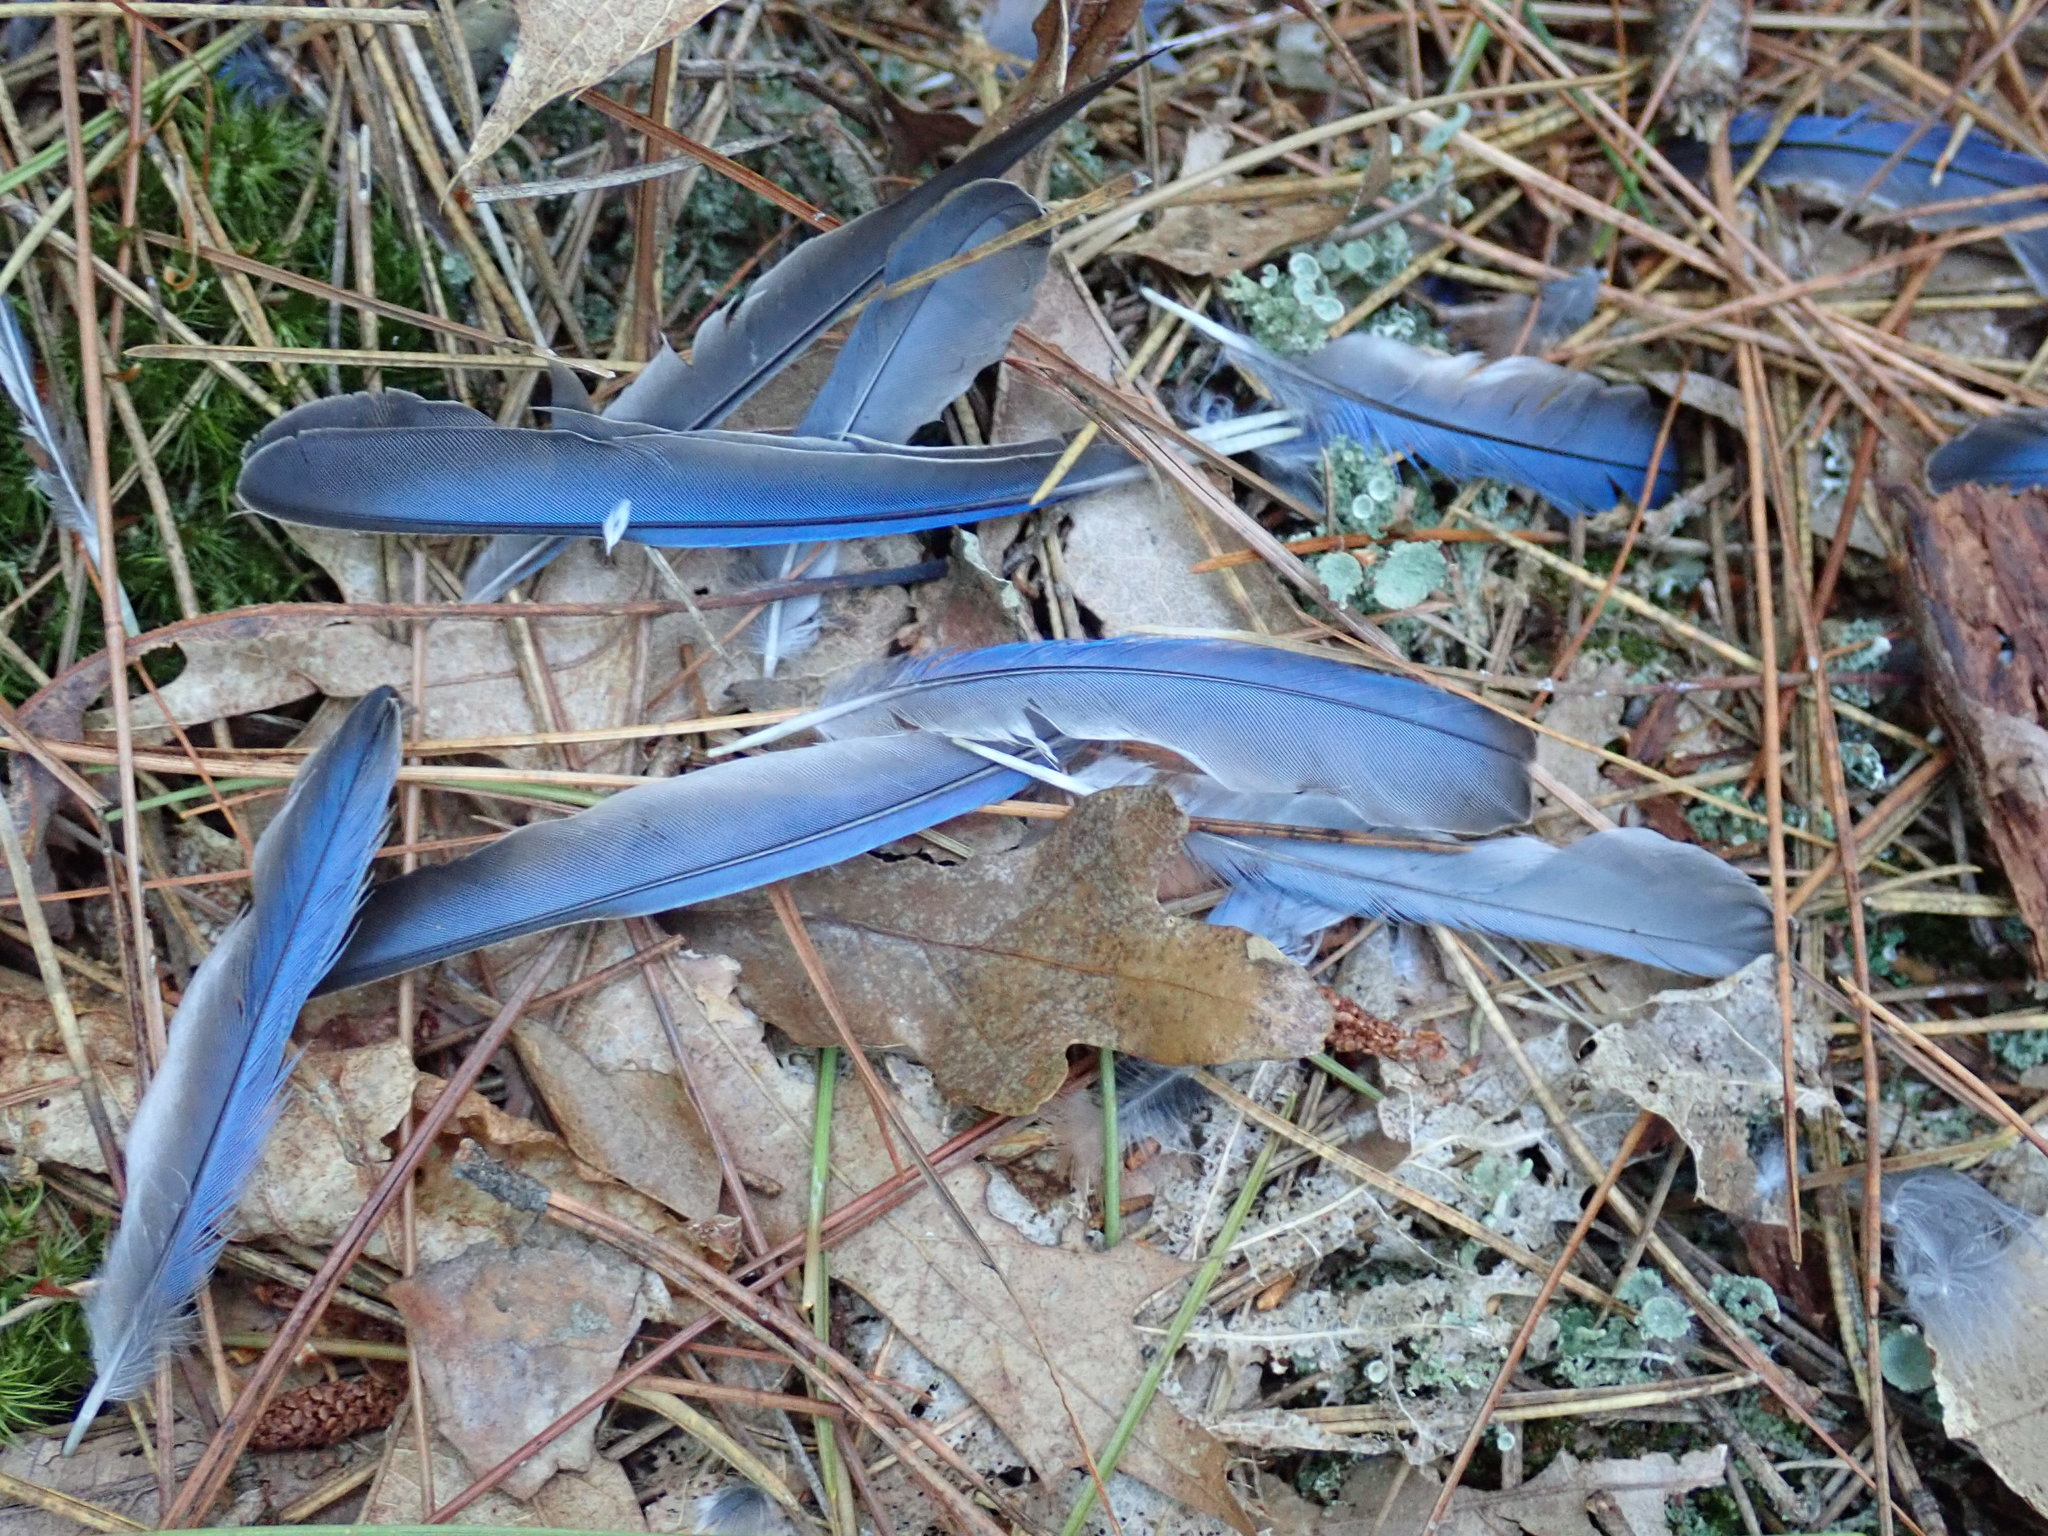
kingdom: Animalia
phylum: Chordata
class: Aves
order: Passeriformes
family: Turdidae
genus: Sialia
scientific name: Sialia sialis
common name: Eastern bluebird
